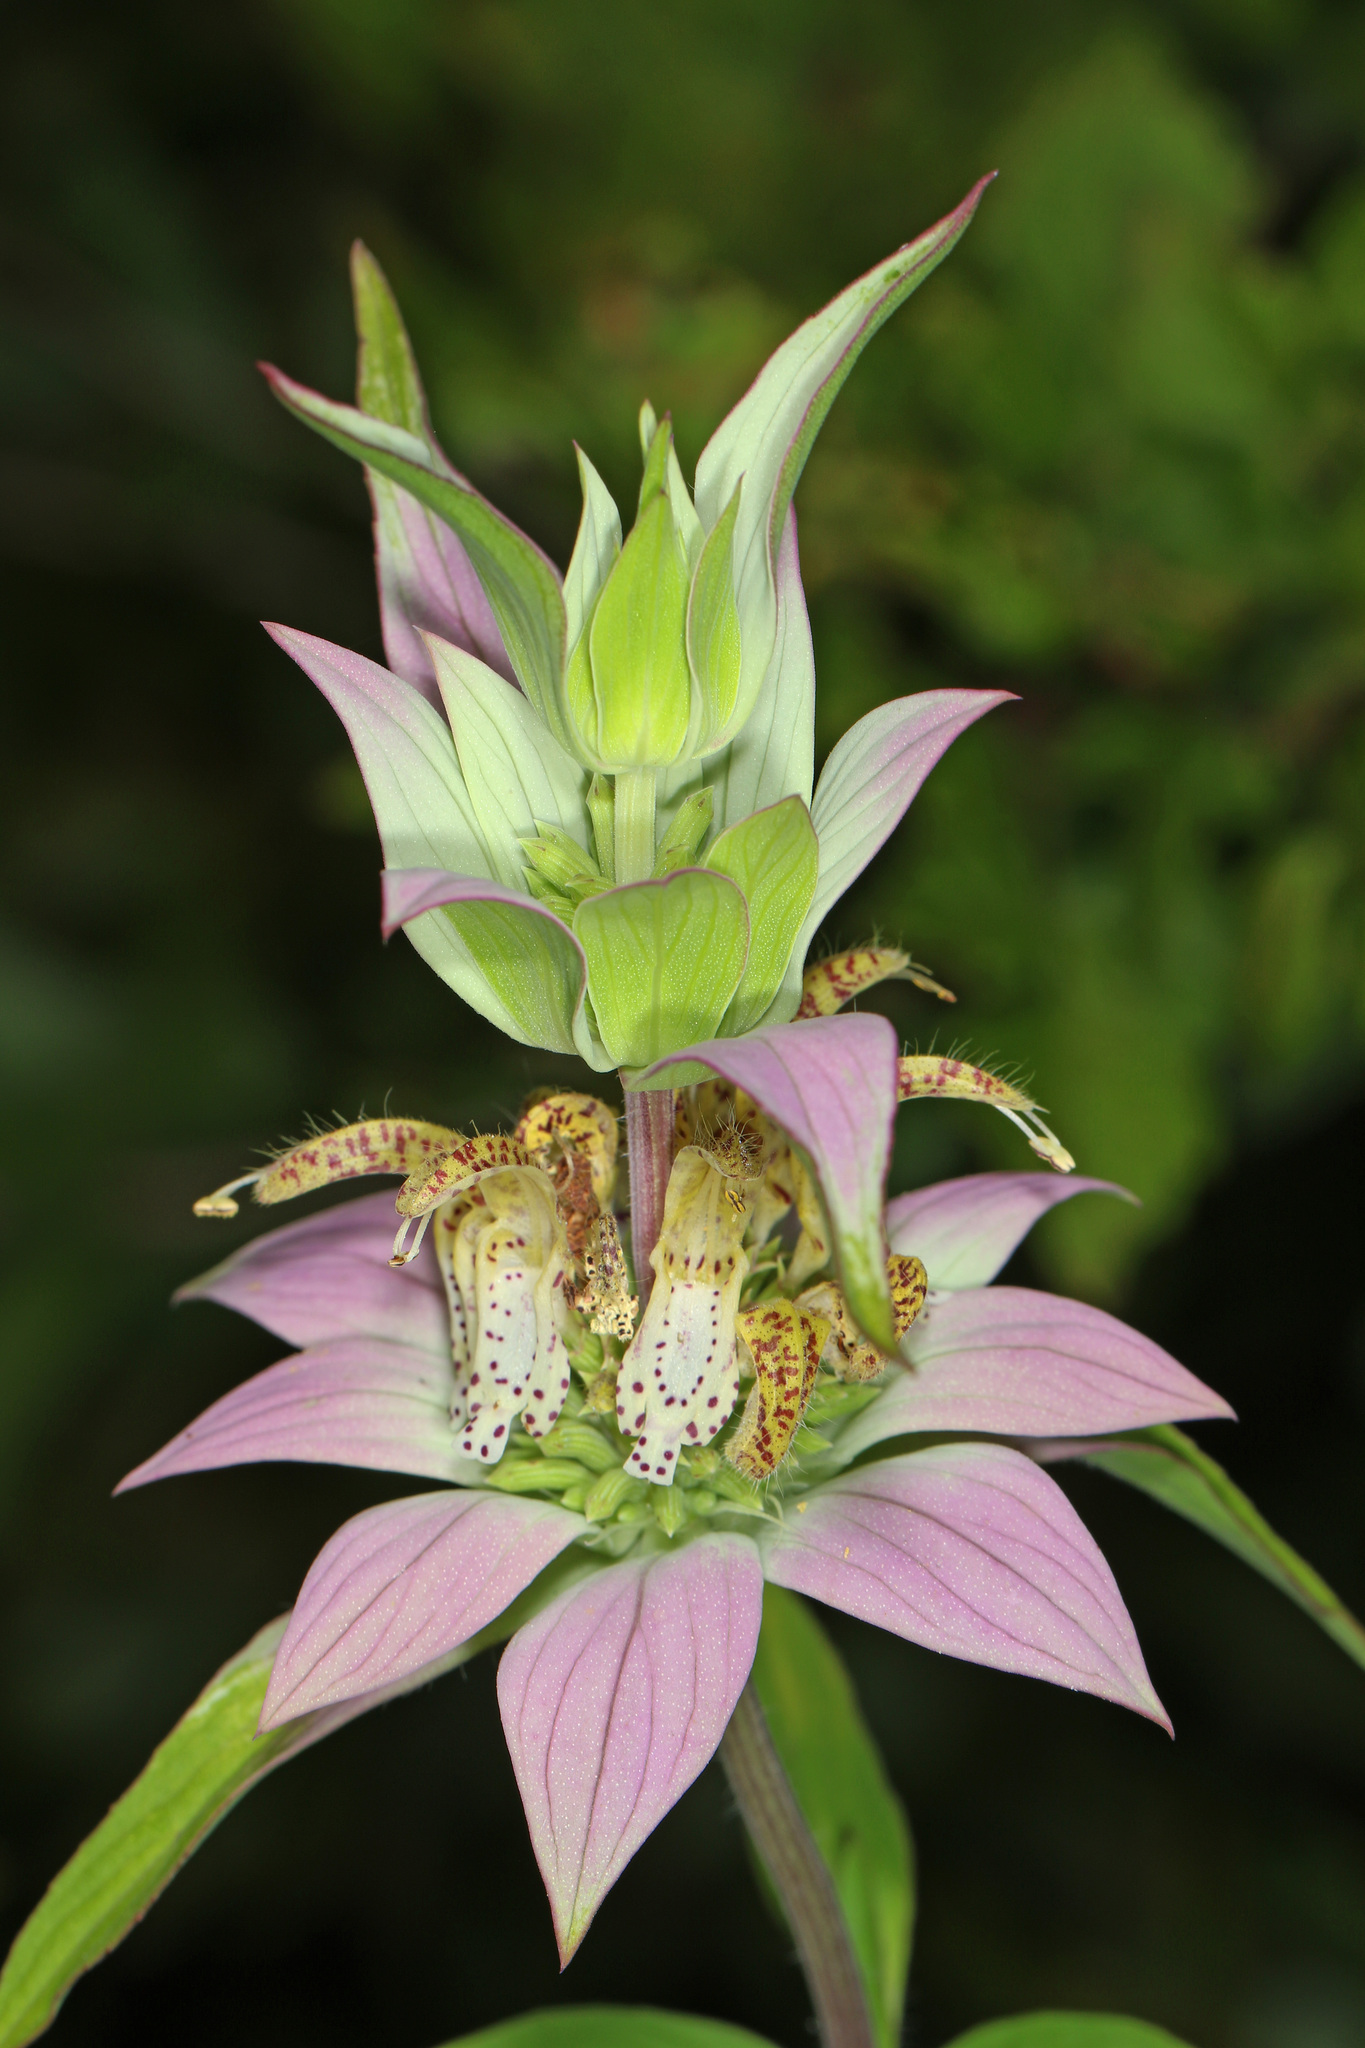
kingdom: Plantae
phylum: Tracheophyta
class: Magnoliopsida
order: Lamiales
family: Lamiaceae
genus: Monarda
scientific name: Monarda punctata
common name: Dotted monarda
